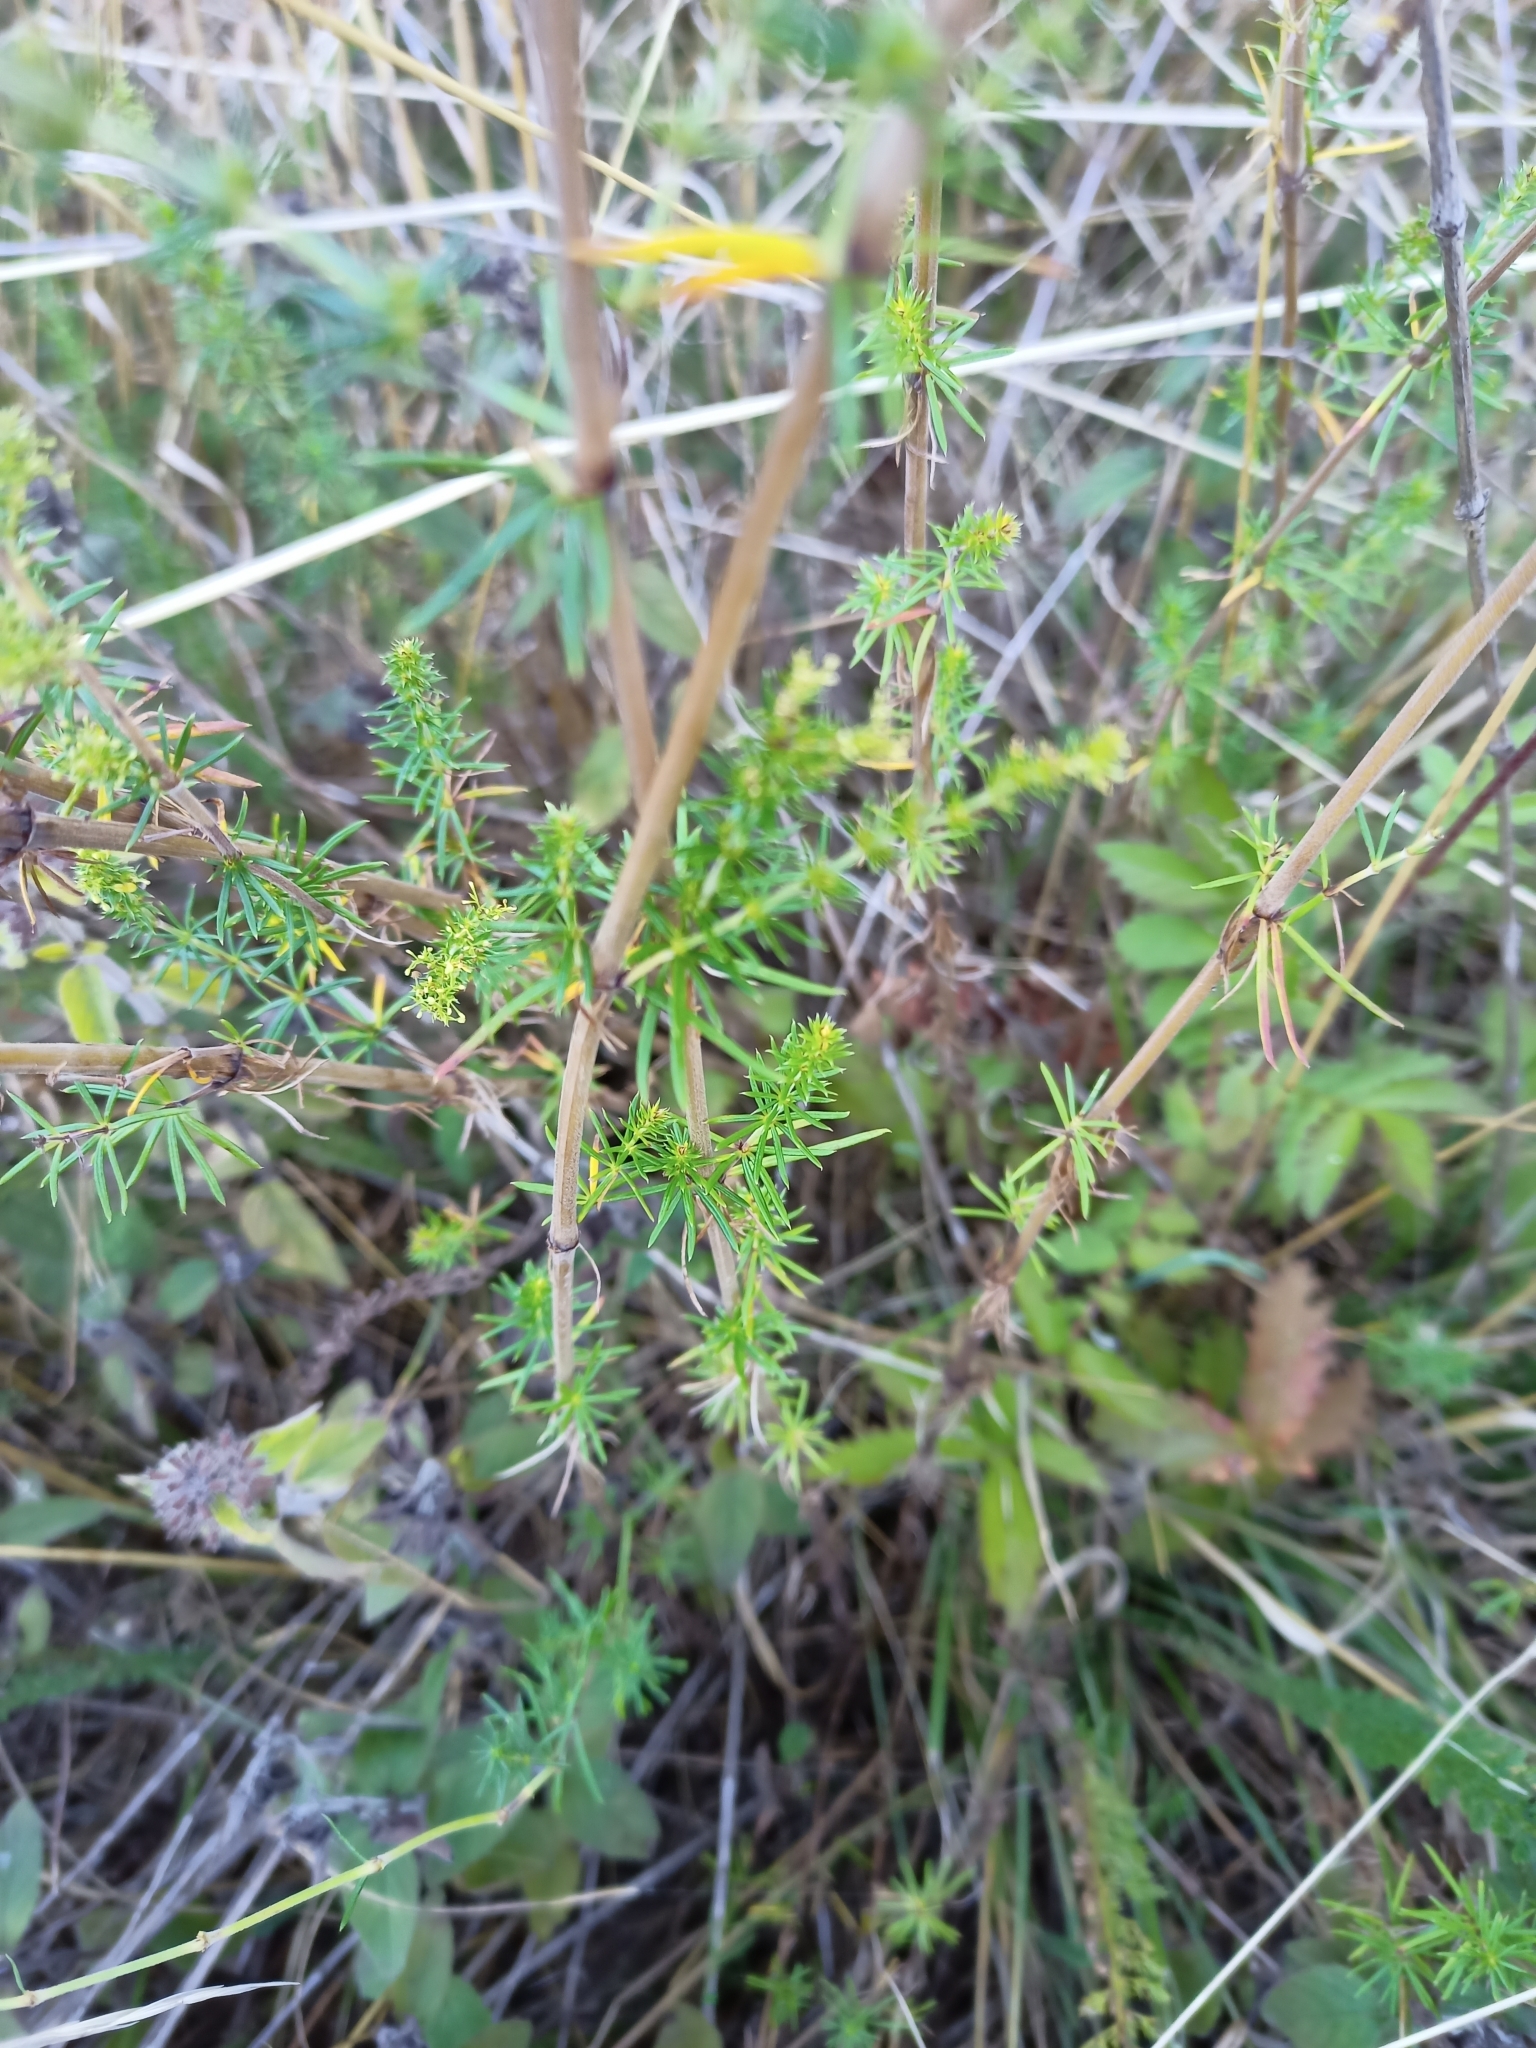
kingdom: Plantae
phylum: Tracheophyta
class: Magnoliopsida
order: Gentianales
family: Rubiaceae
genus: Galium
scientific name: Galium verum
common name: Lady's bedstraw
